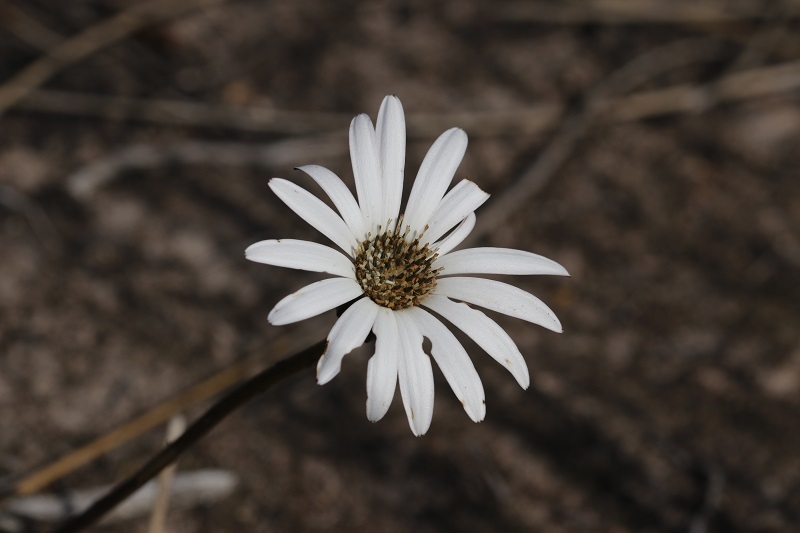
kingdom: Plantae
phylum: Tracheophyta
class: Magnoliopsida
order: Asterales
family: Asteraceae
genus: Gerbera
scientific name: Gerbera serrata
